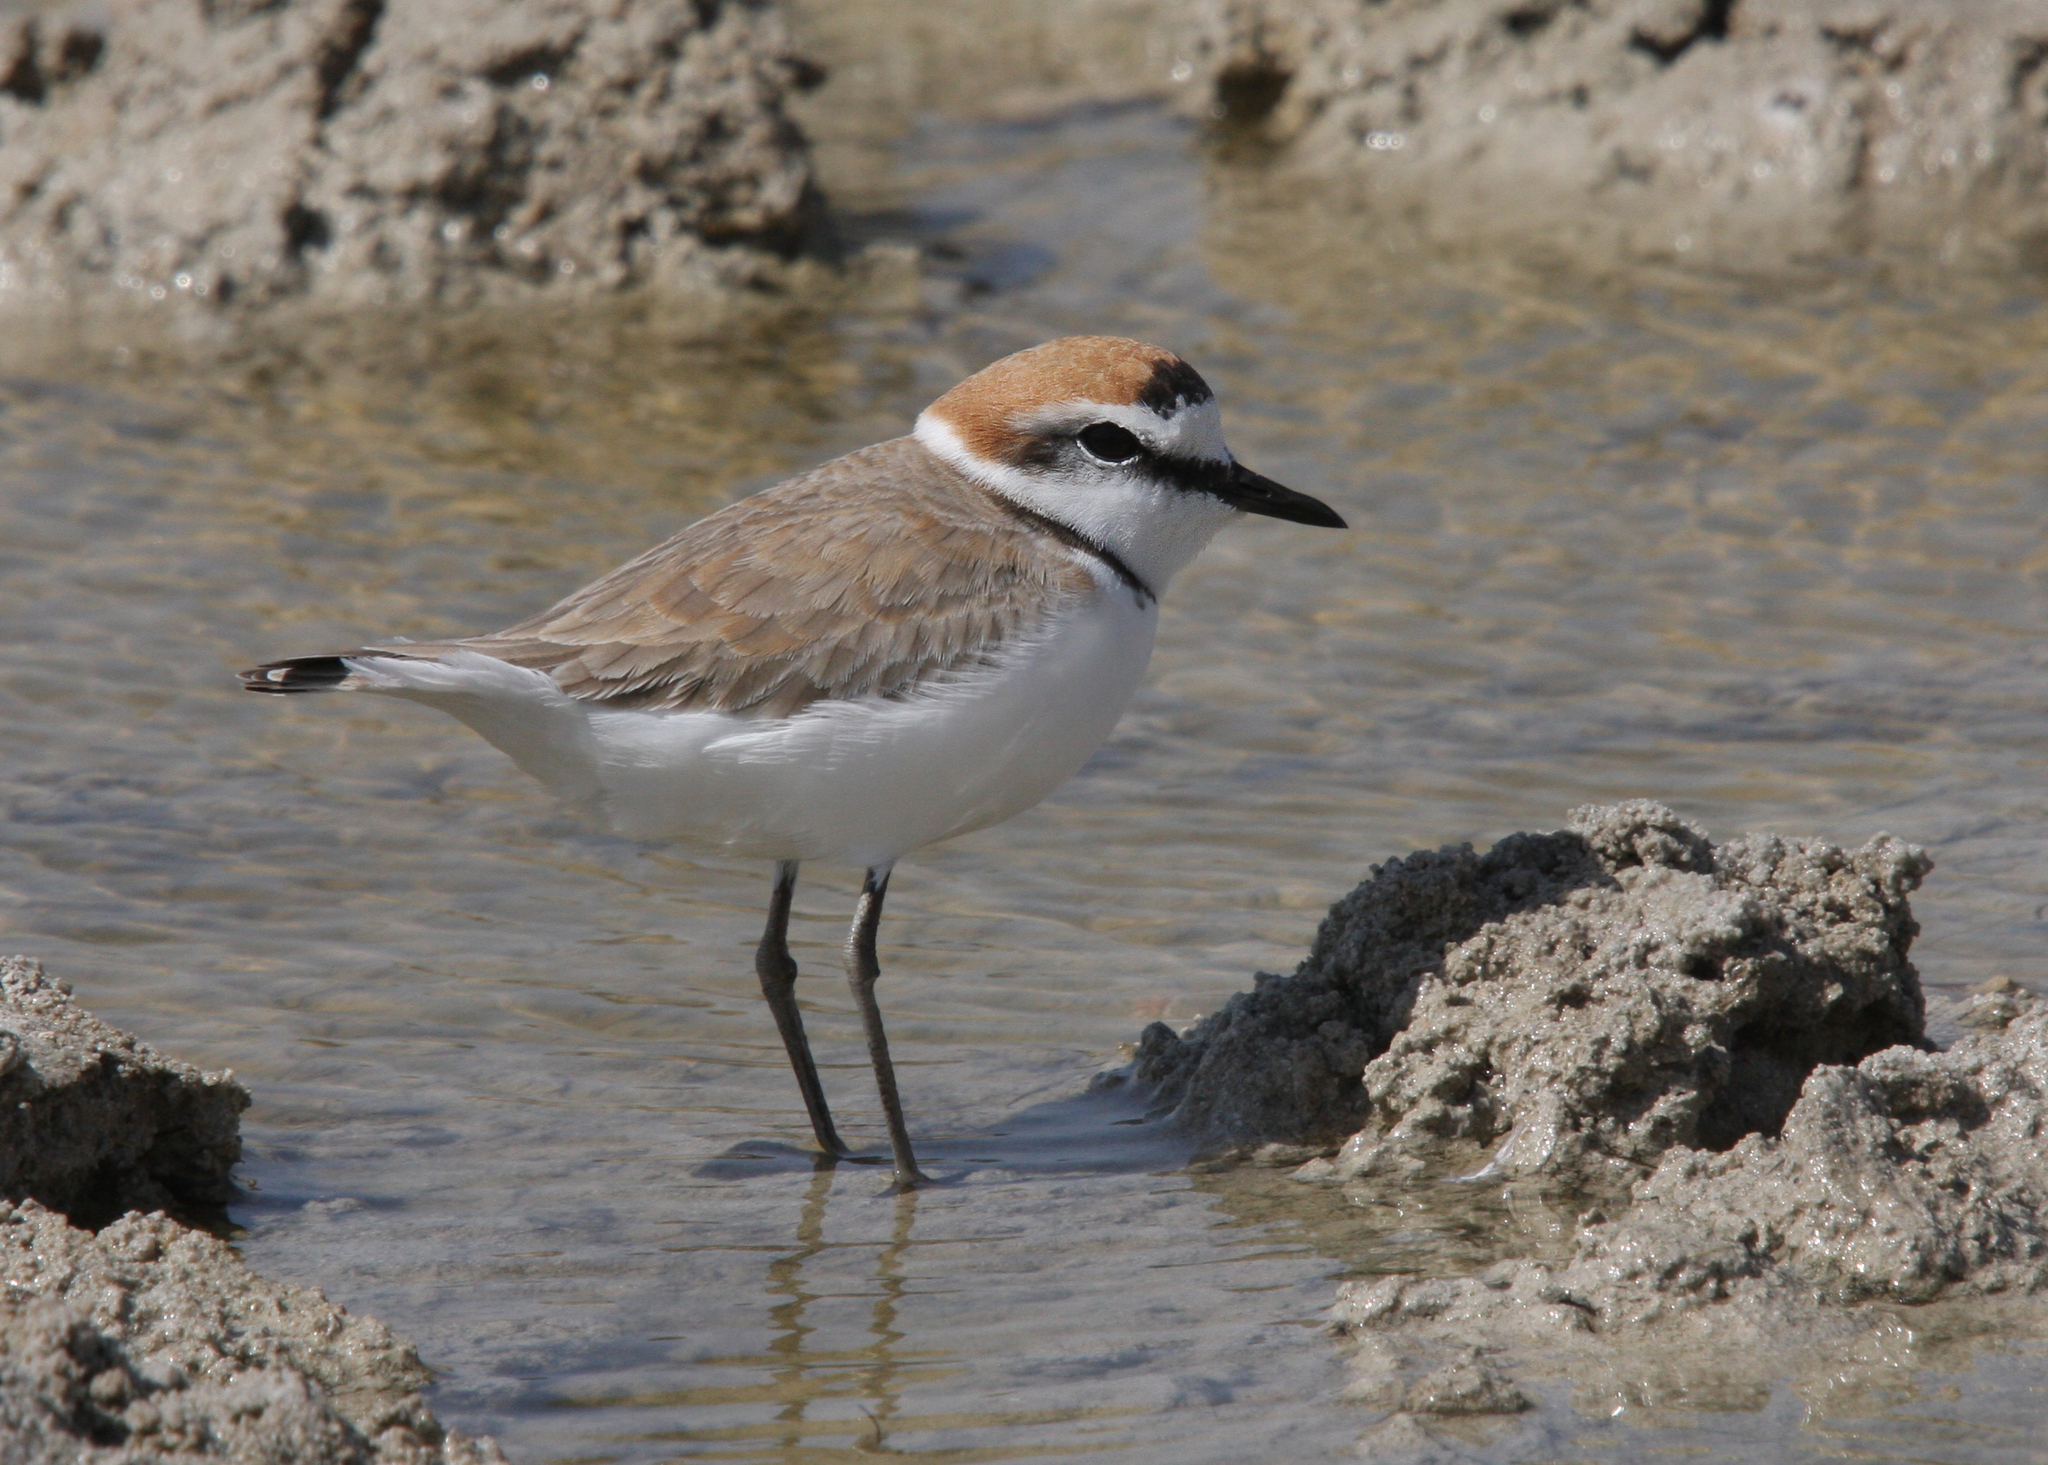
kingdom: Animalia
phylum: Chordata
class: Aves
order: Charadriiformes
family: Charadriidae
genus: Charadrius
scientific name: Charadrius alexandrinus
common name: Kentish plover
